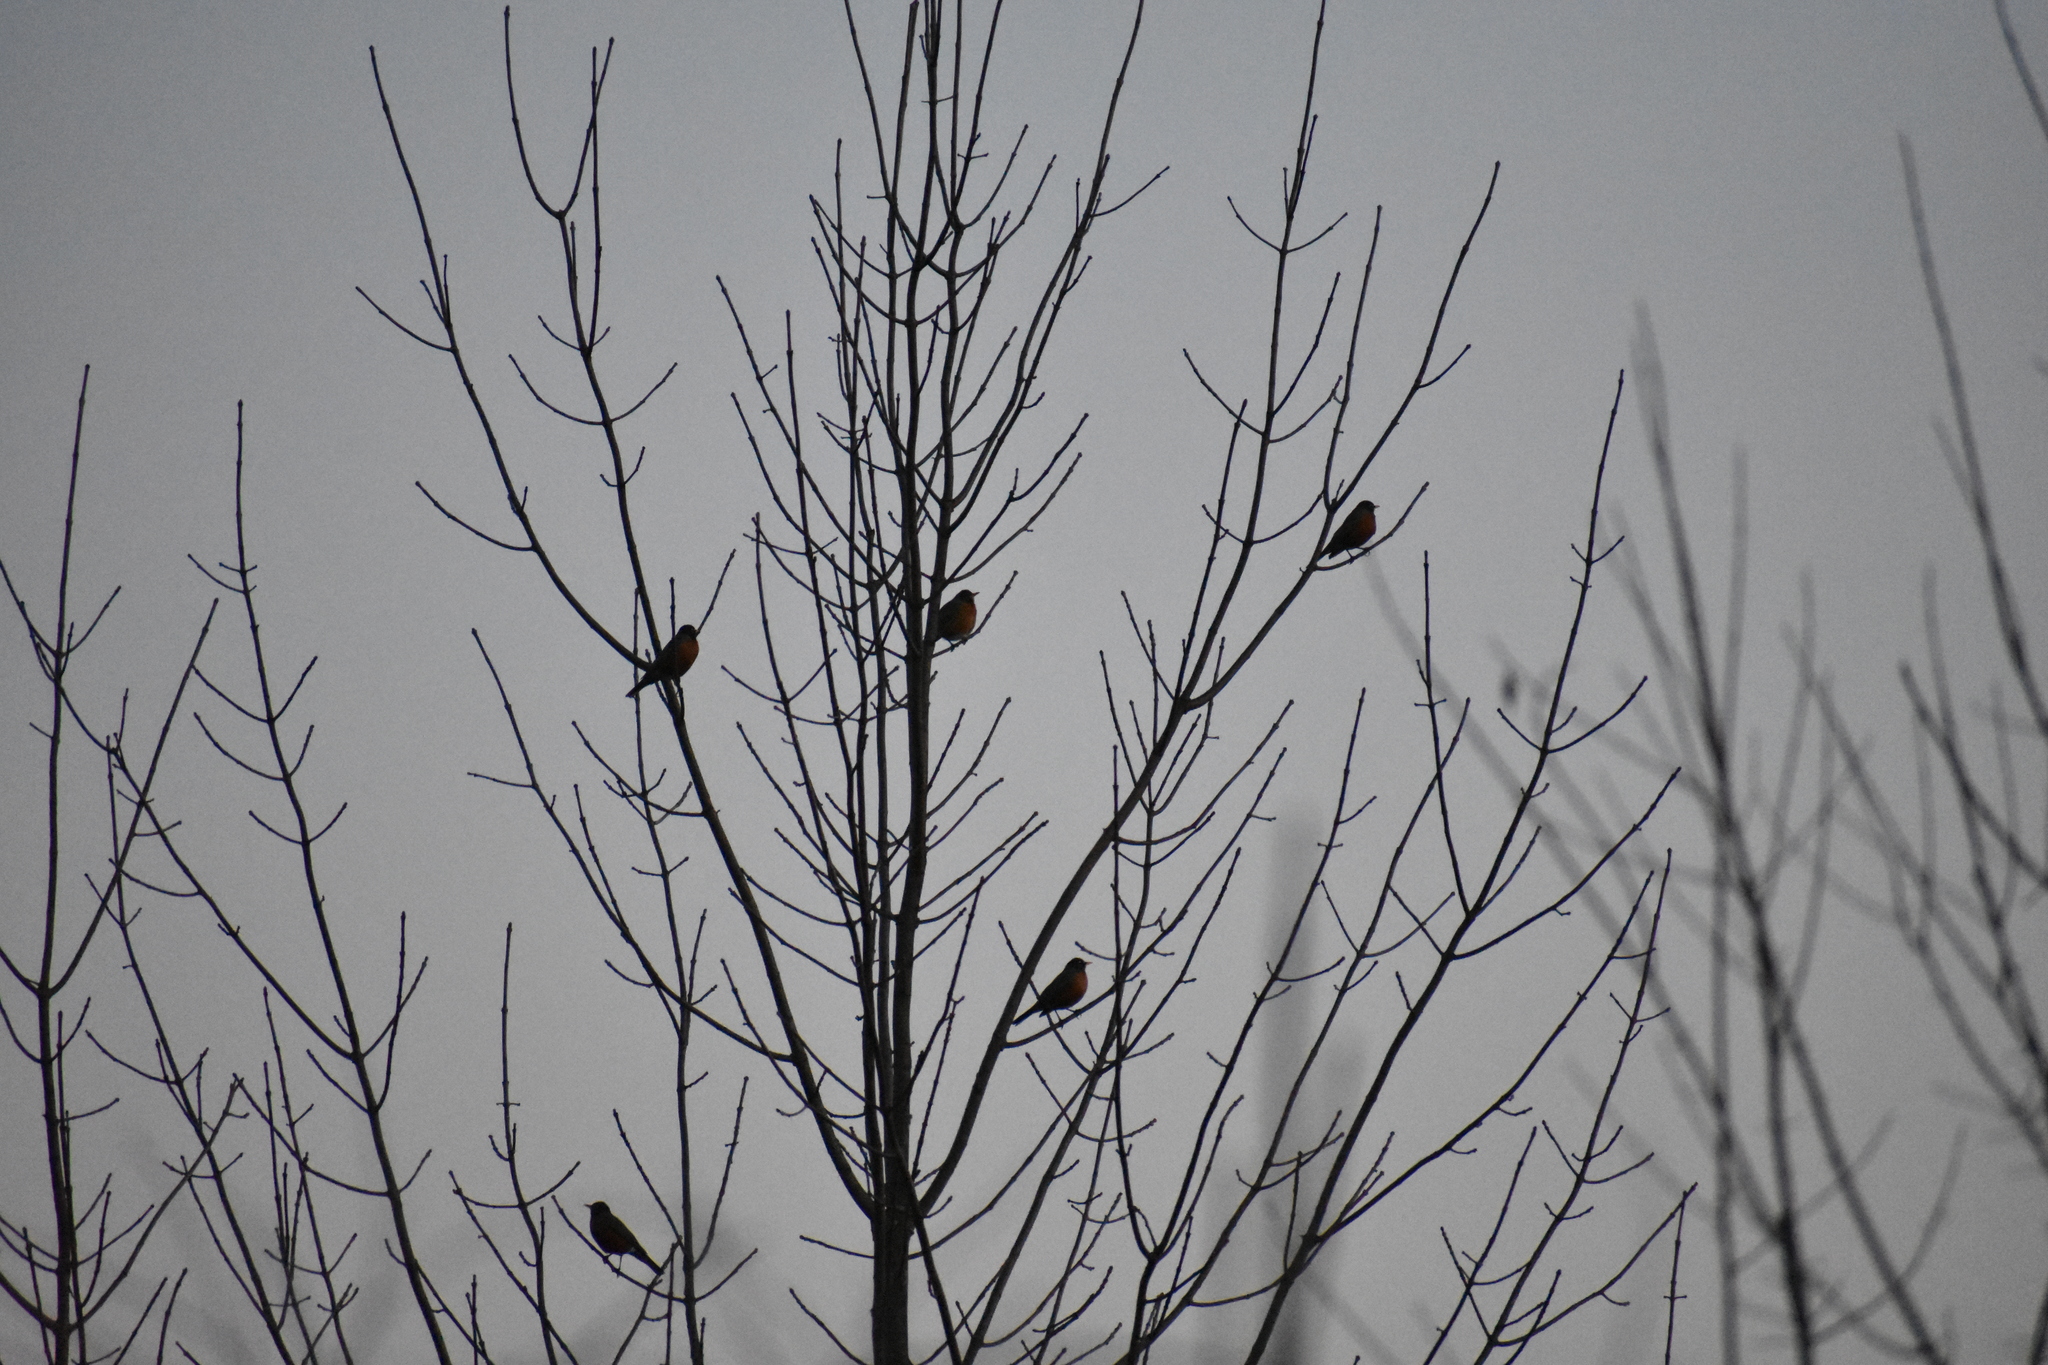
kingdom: Animalia
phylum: Chordata
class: Aves
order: Passeriformes
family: Turdidae
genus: Turdus
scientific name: Turdus migratorius
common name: American robin
